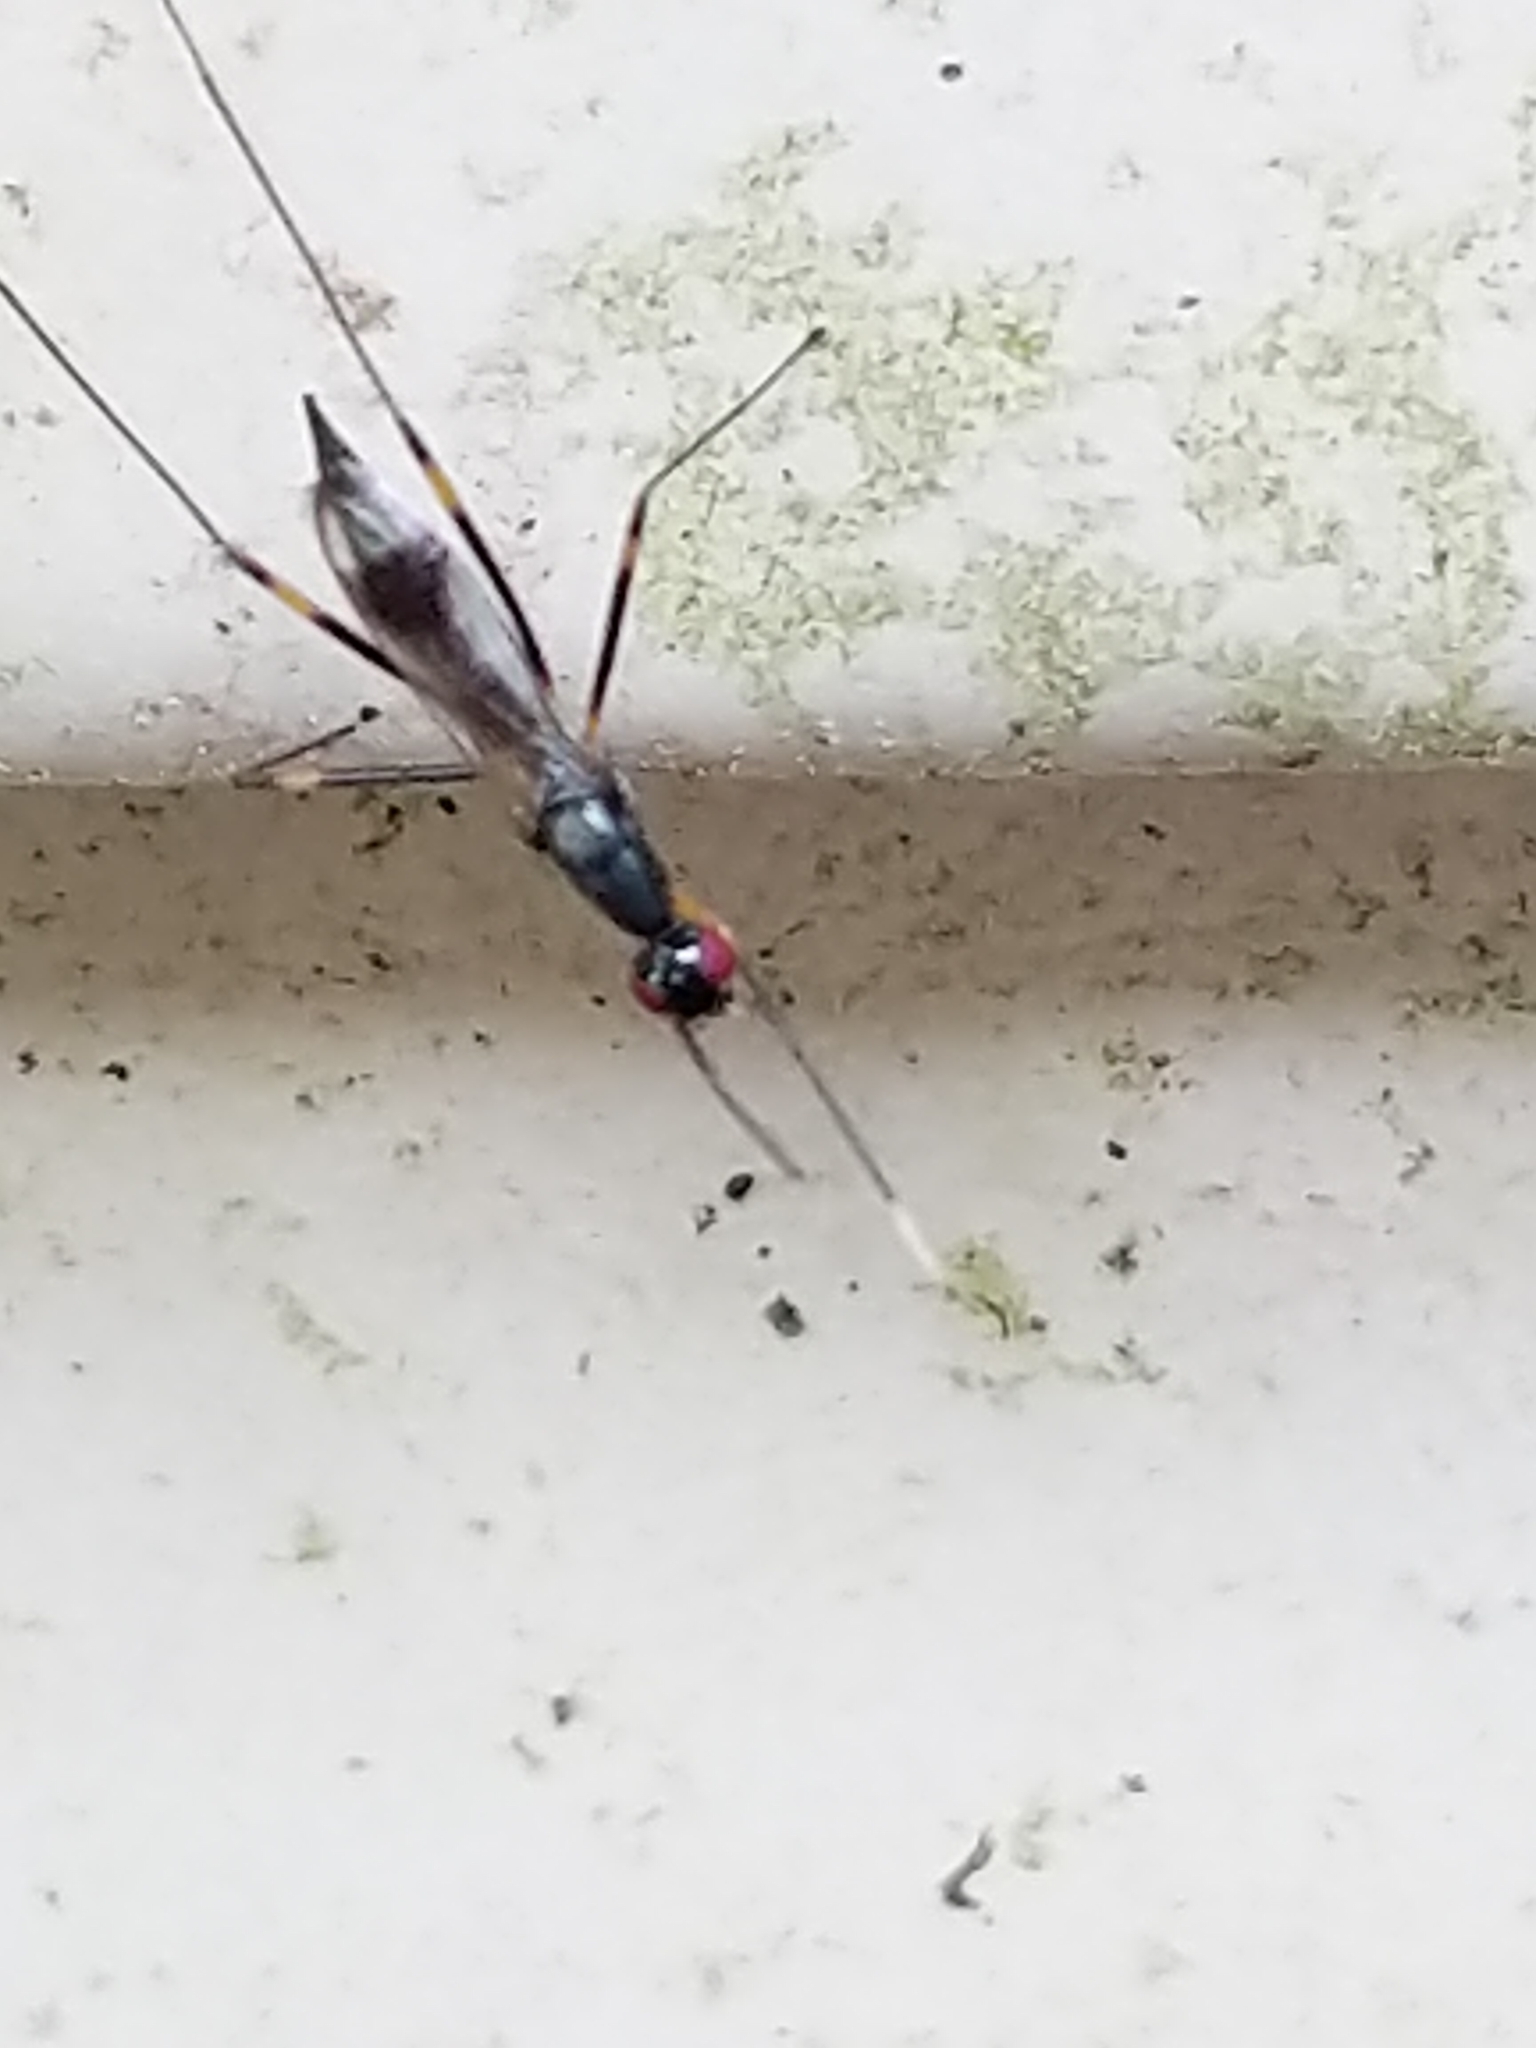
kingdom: Animalia
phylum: Arthropoda
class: Insecta
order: Diptera
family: Micropezidae
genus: Rainieria
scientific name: Rainieria antennaepes
